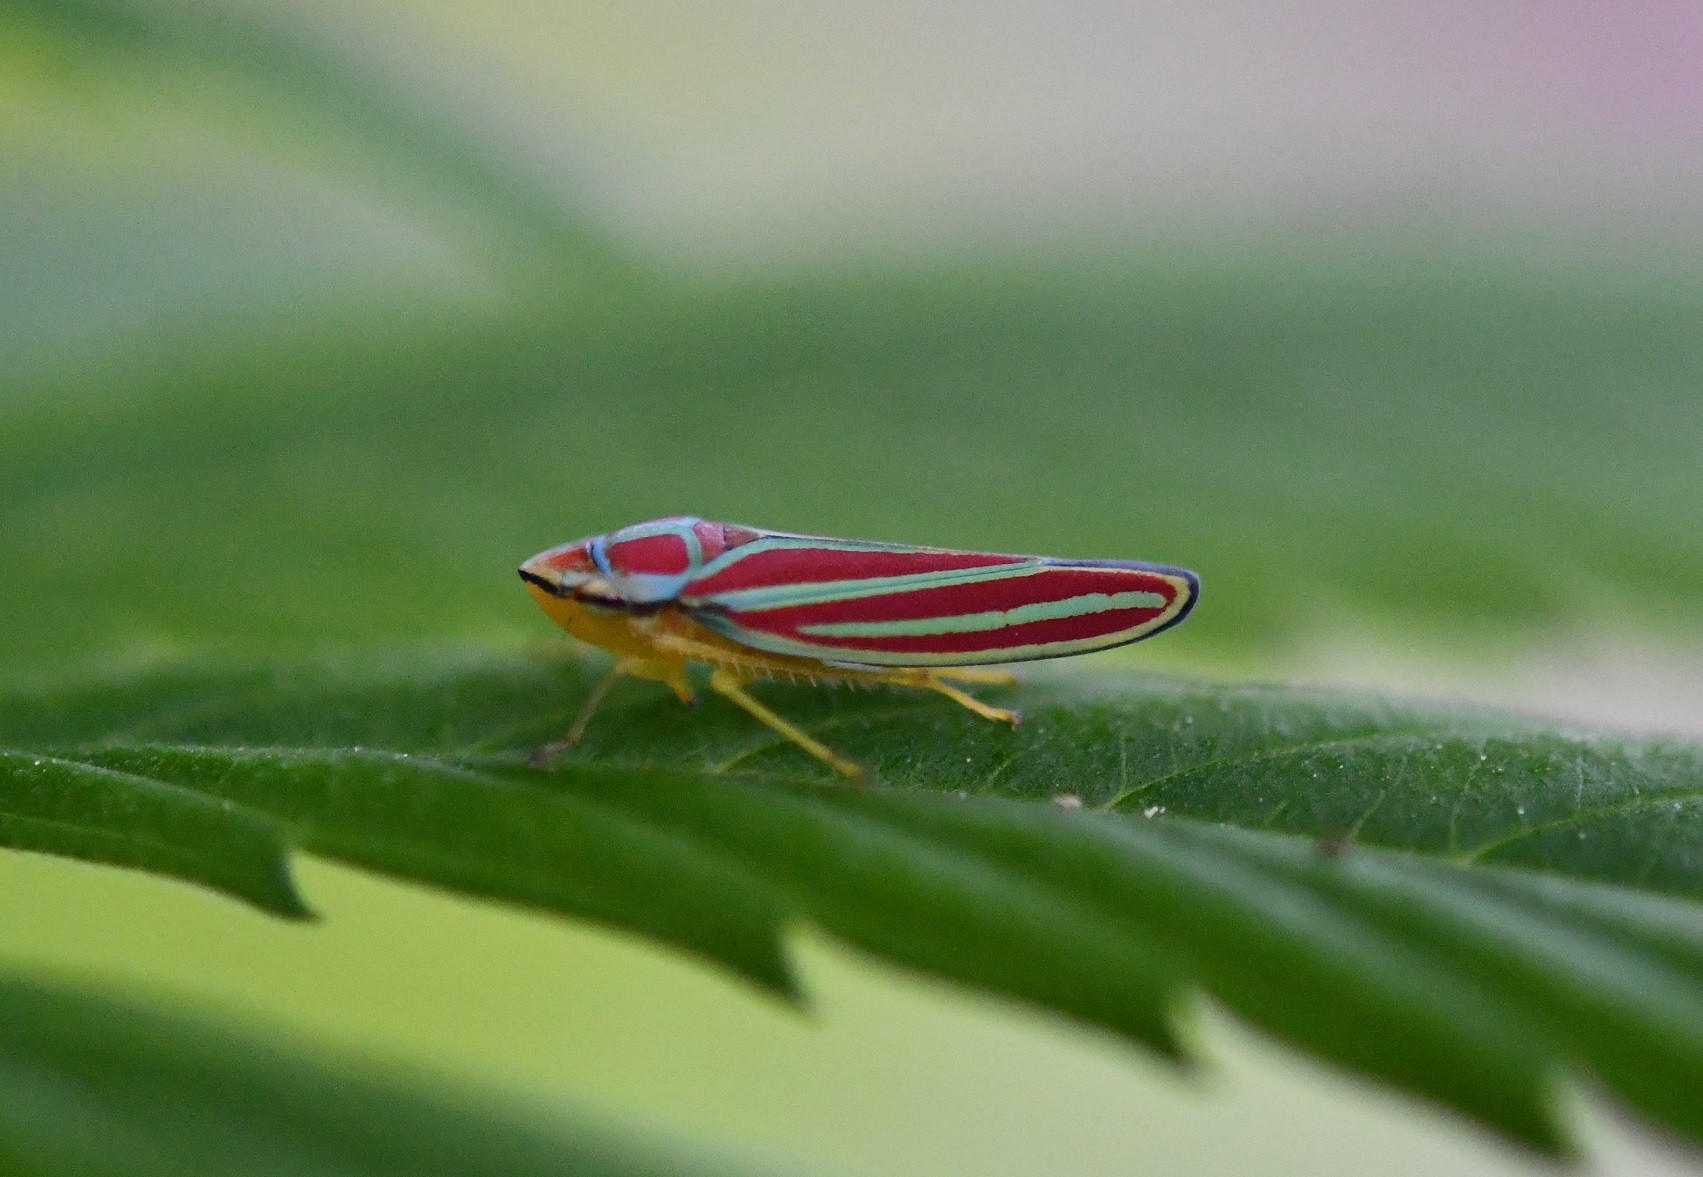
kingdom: Animalia
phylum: Arthropoda
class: Insecta
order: Hemiptera
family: Cicadellidae
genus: Graphocephala
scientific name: Graphocephala
